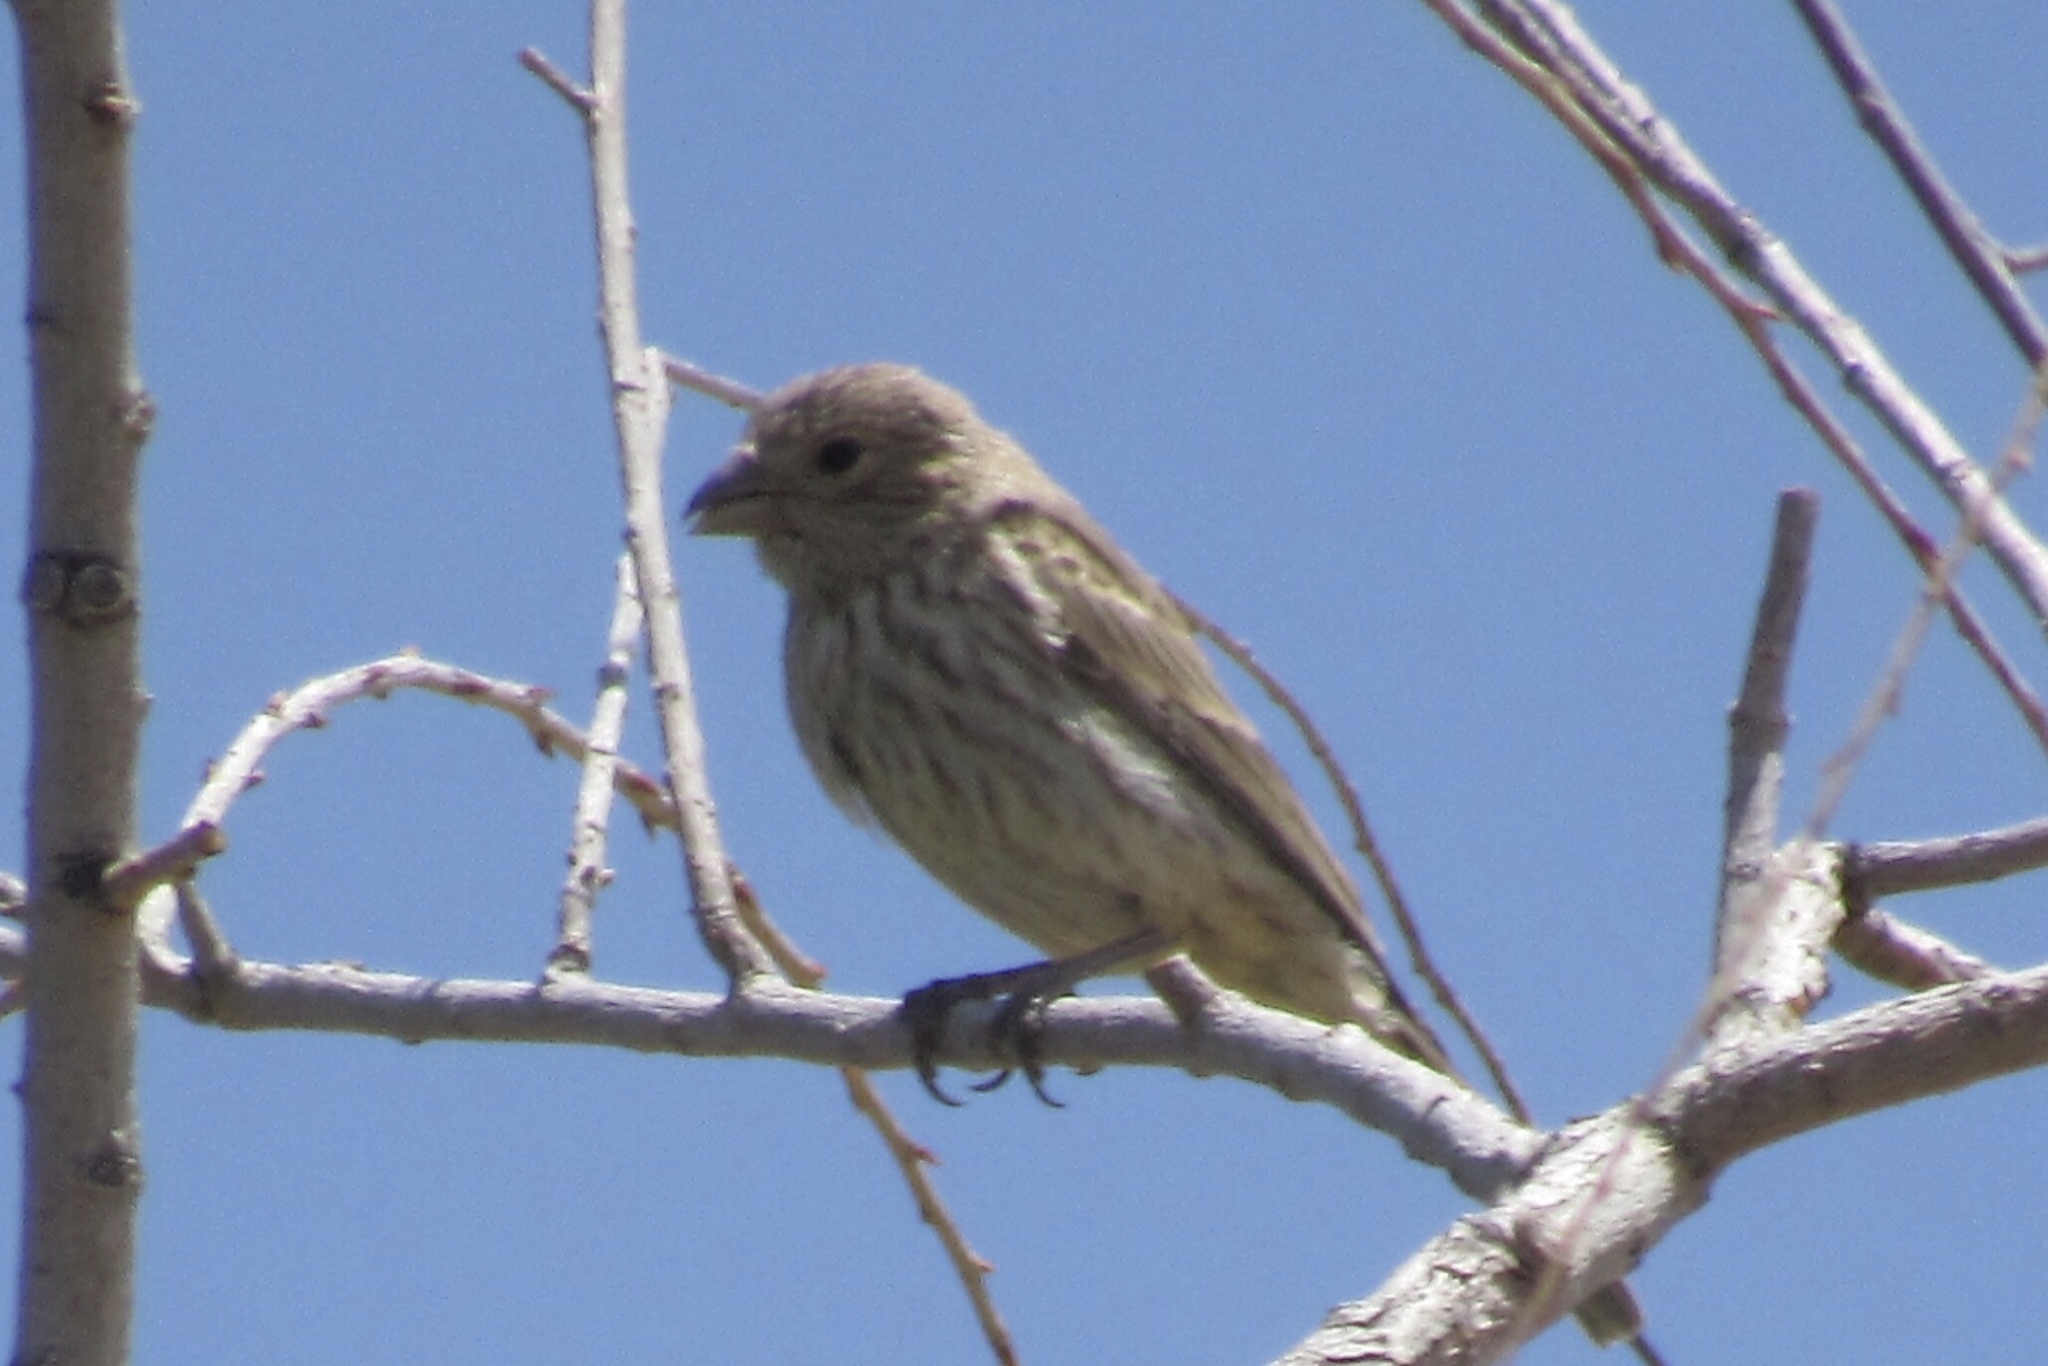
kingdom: Animalia
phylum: Chordata
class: Aves
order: Passeriformes
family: Fringillidae
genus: Haemorhous
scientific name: Haemorhous mexicanus
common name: House finch
